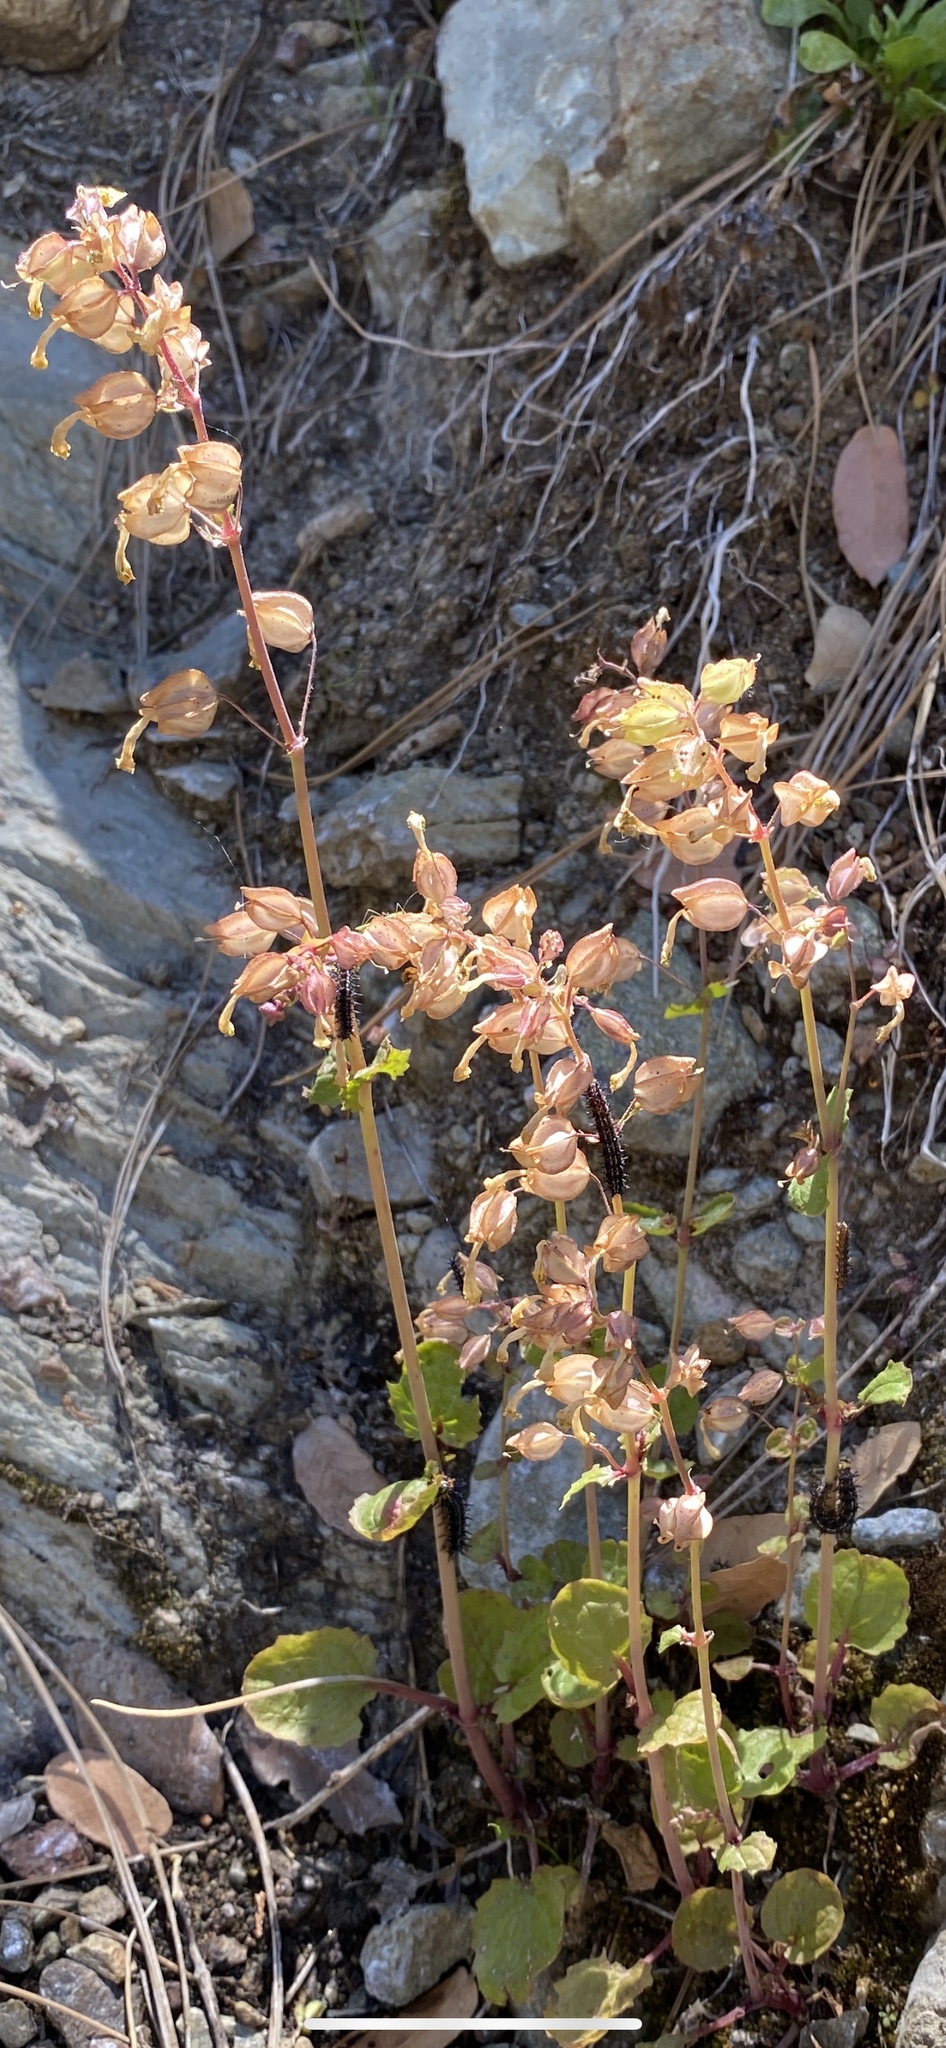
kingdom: Plantae
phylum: Tracheophyta
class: Magnoliopsida
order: Lamiales
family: Phrymaceae
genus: Erythranthe
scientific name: Erythranthe guttata
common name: Monkeyflower
